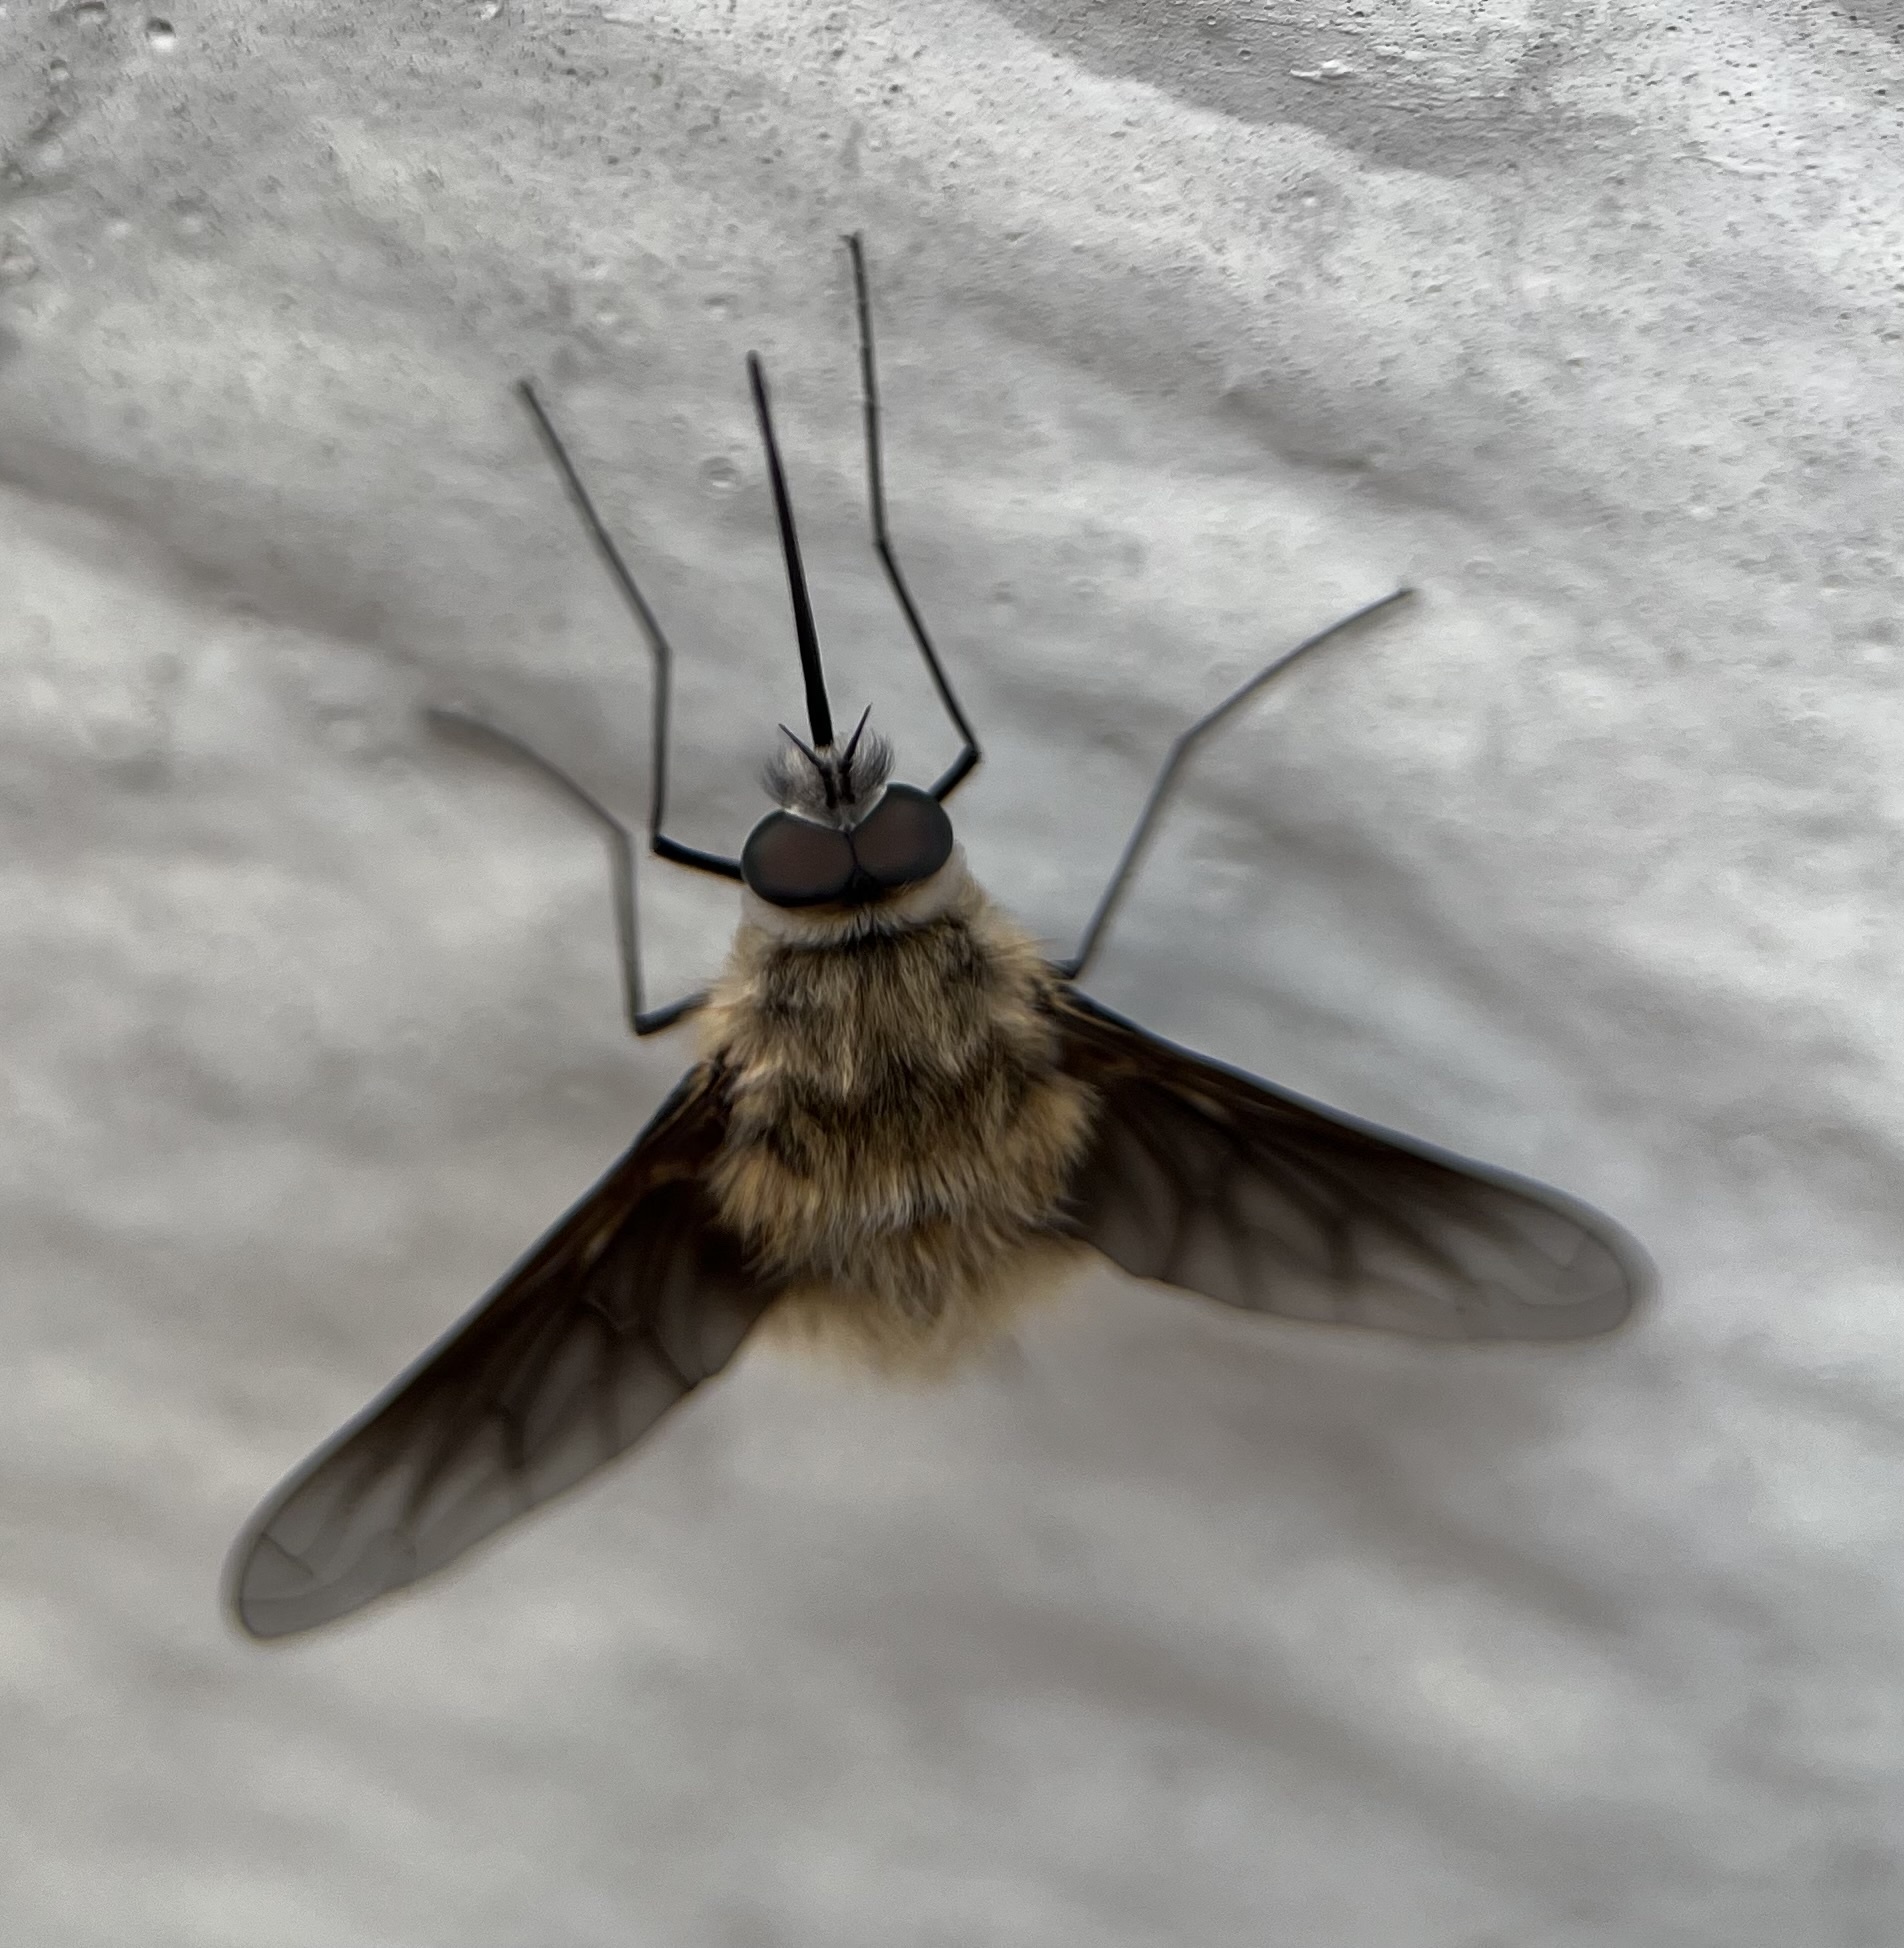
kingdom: Animalia
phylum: Arthropoda
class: Insecta
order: Diptera
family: Bombyliidae
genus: Triploechus
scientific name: Triploechus novus
